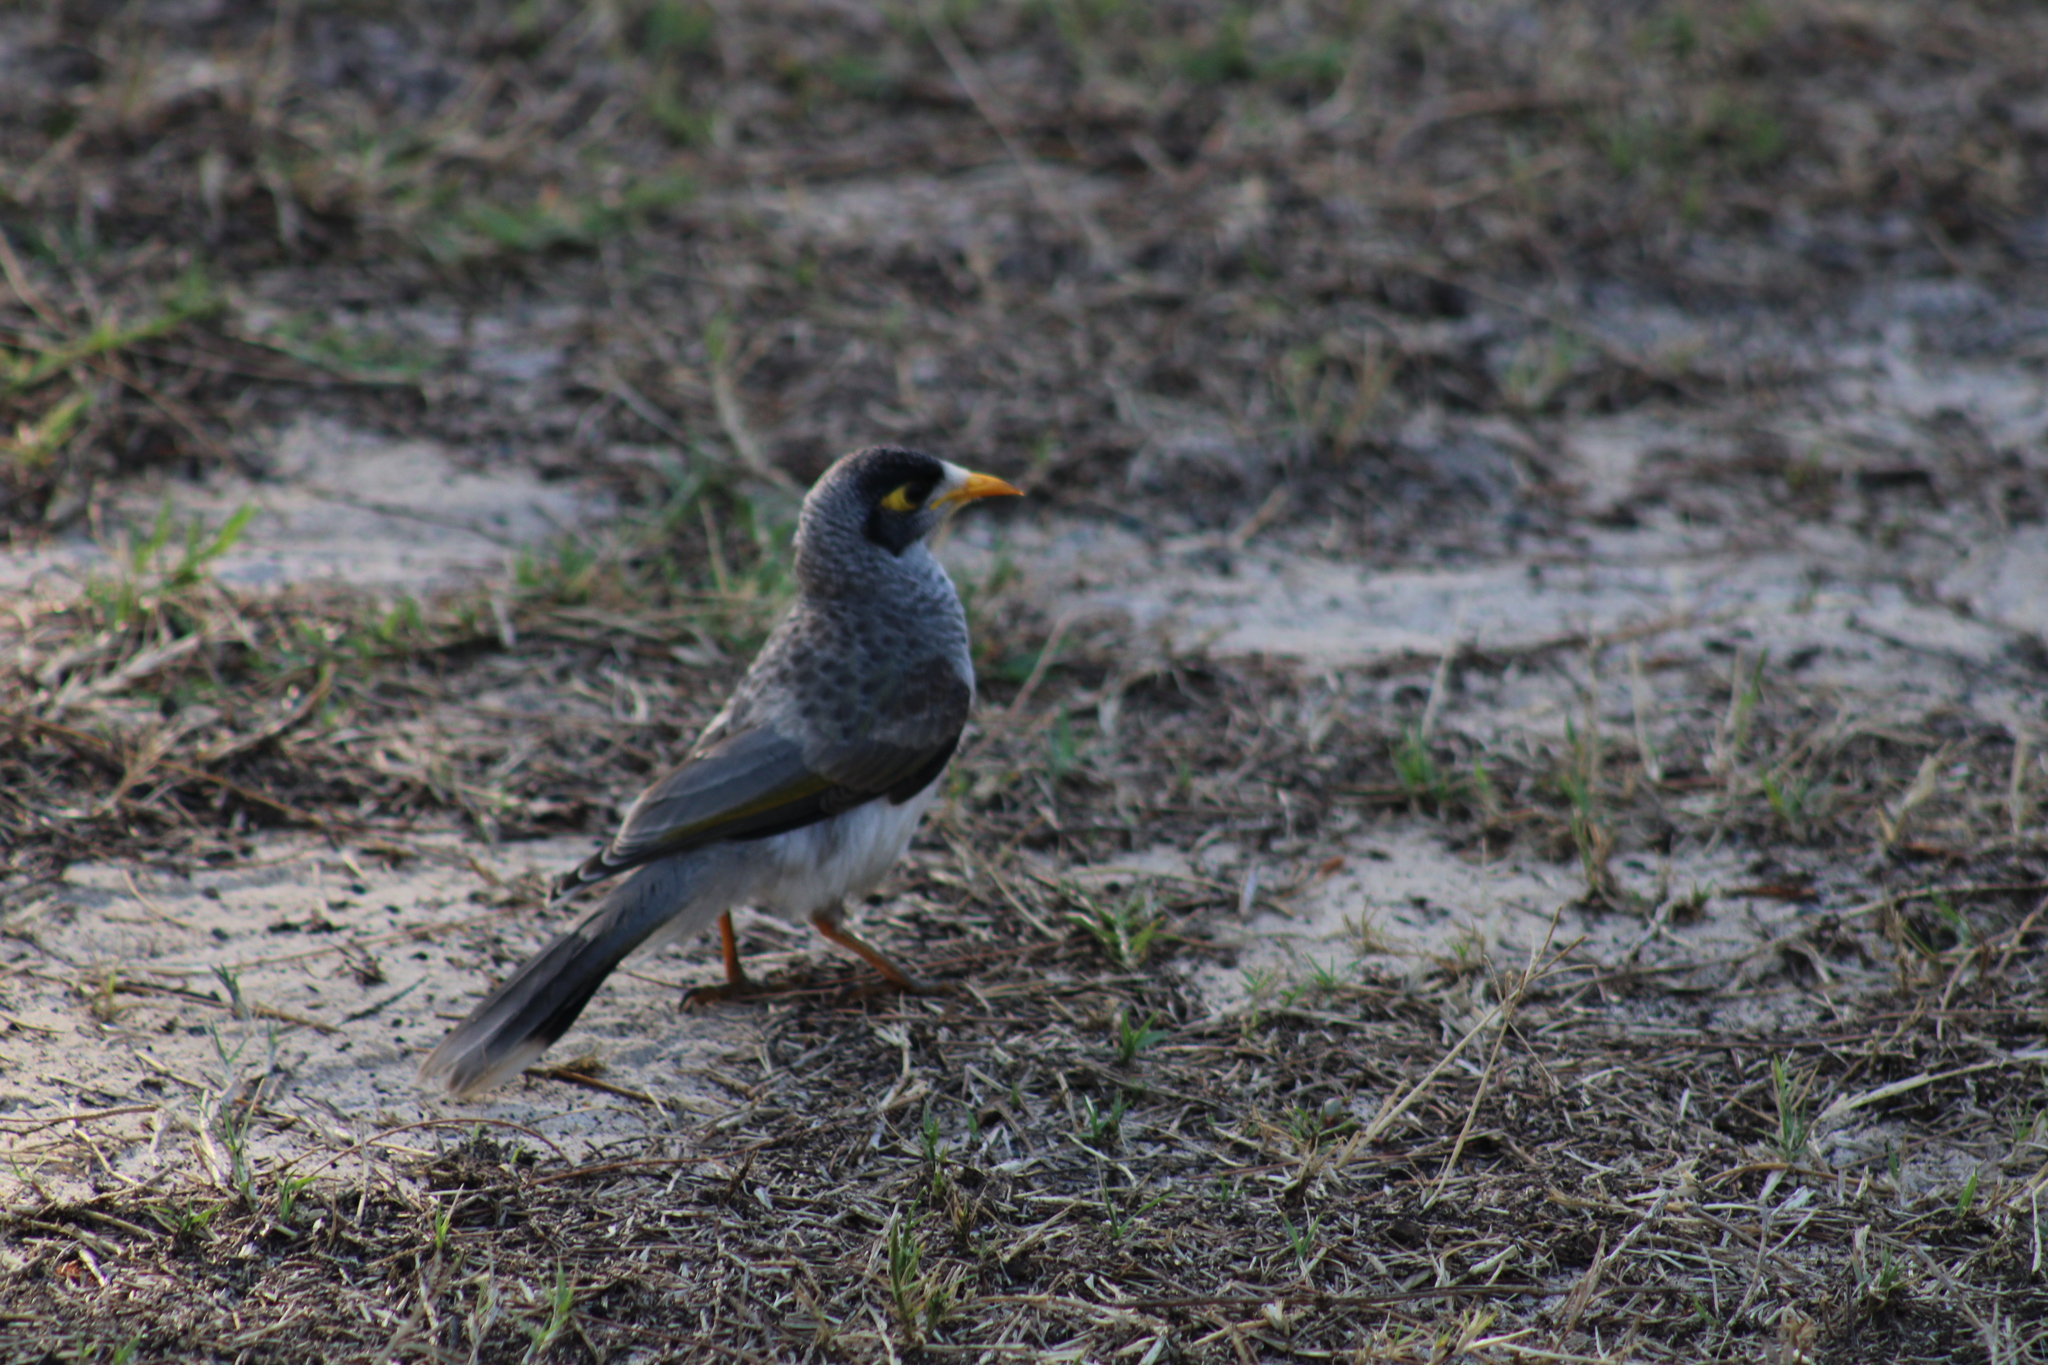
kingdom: Animalia
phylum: Chordata
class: Aves
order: Passeriformes
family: Meliphagidae
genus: Manorina
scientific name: Manorina melanocephala
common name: Noisy miner
